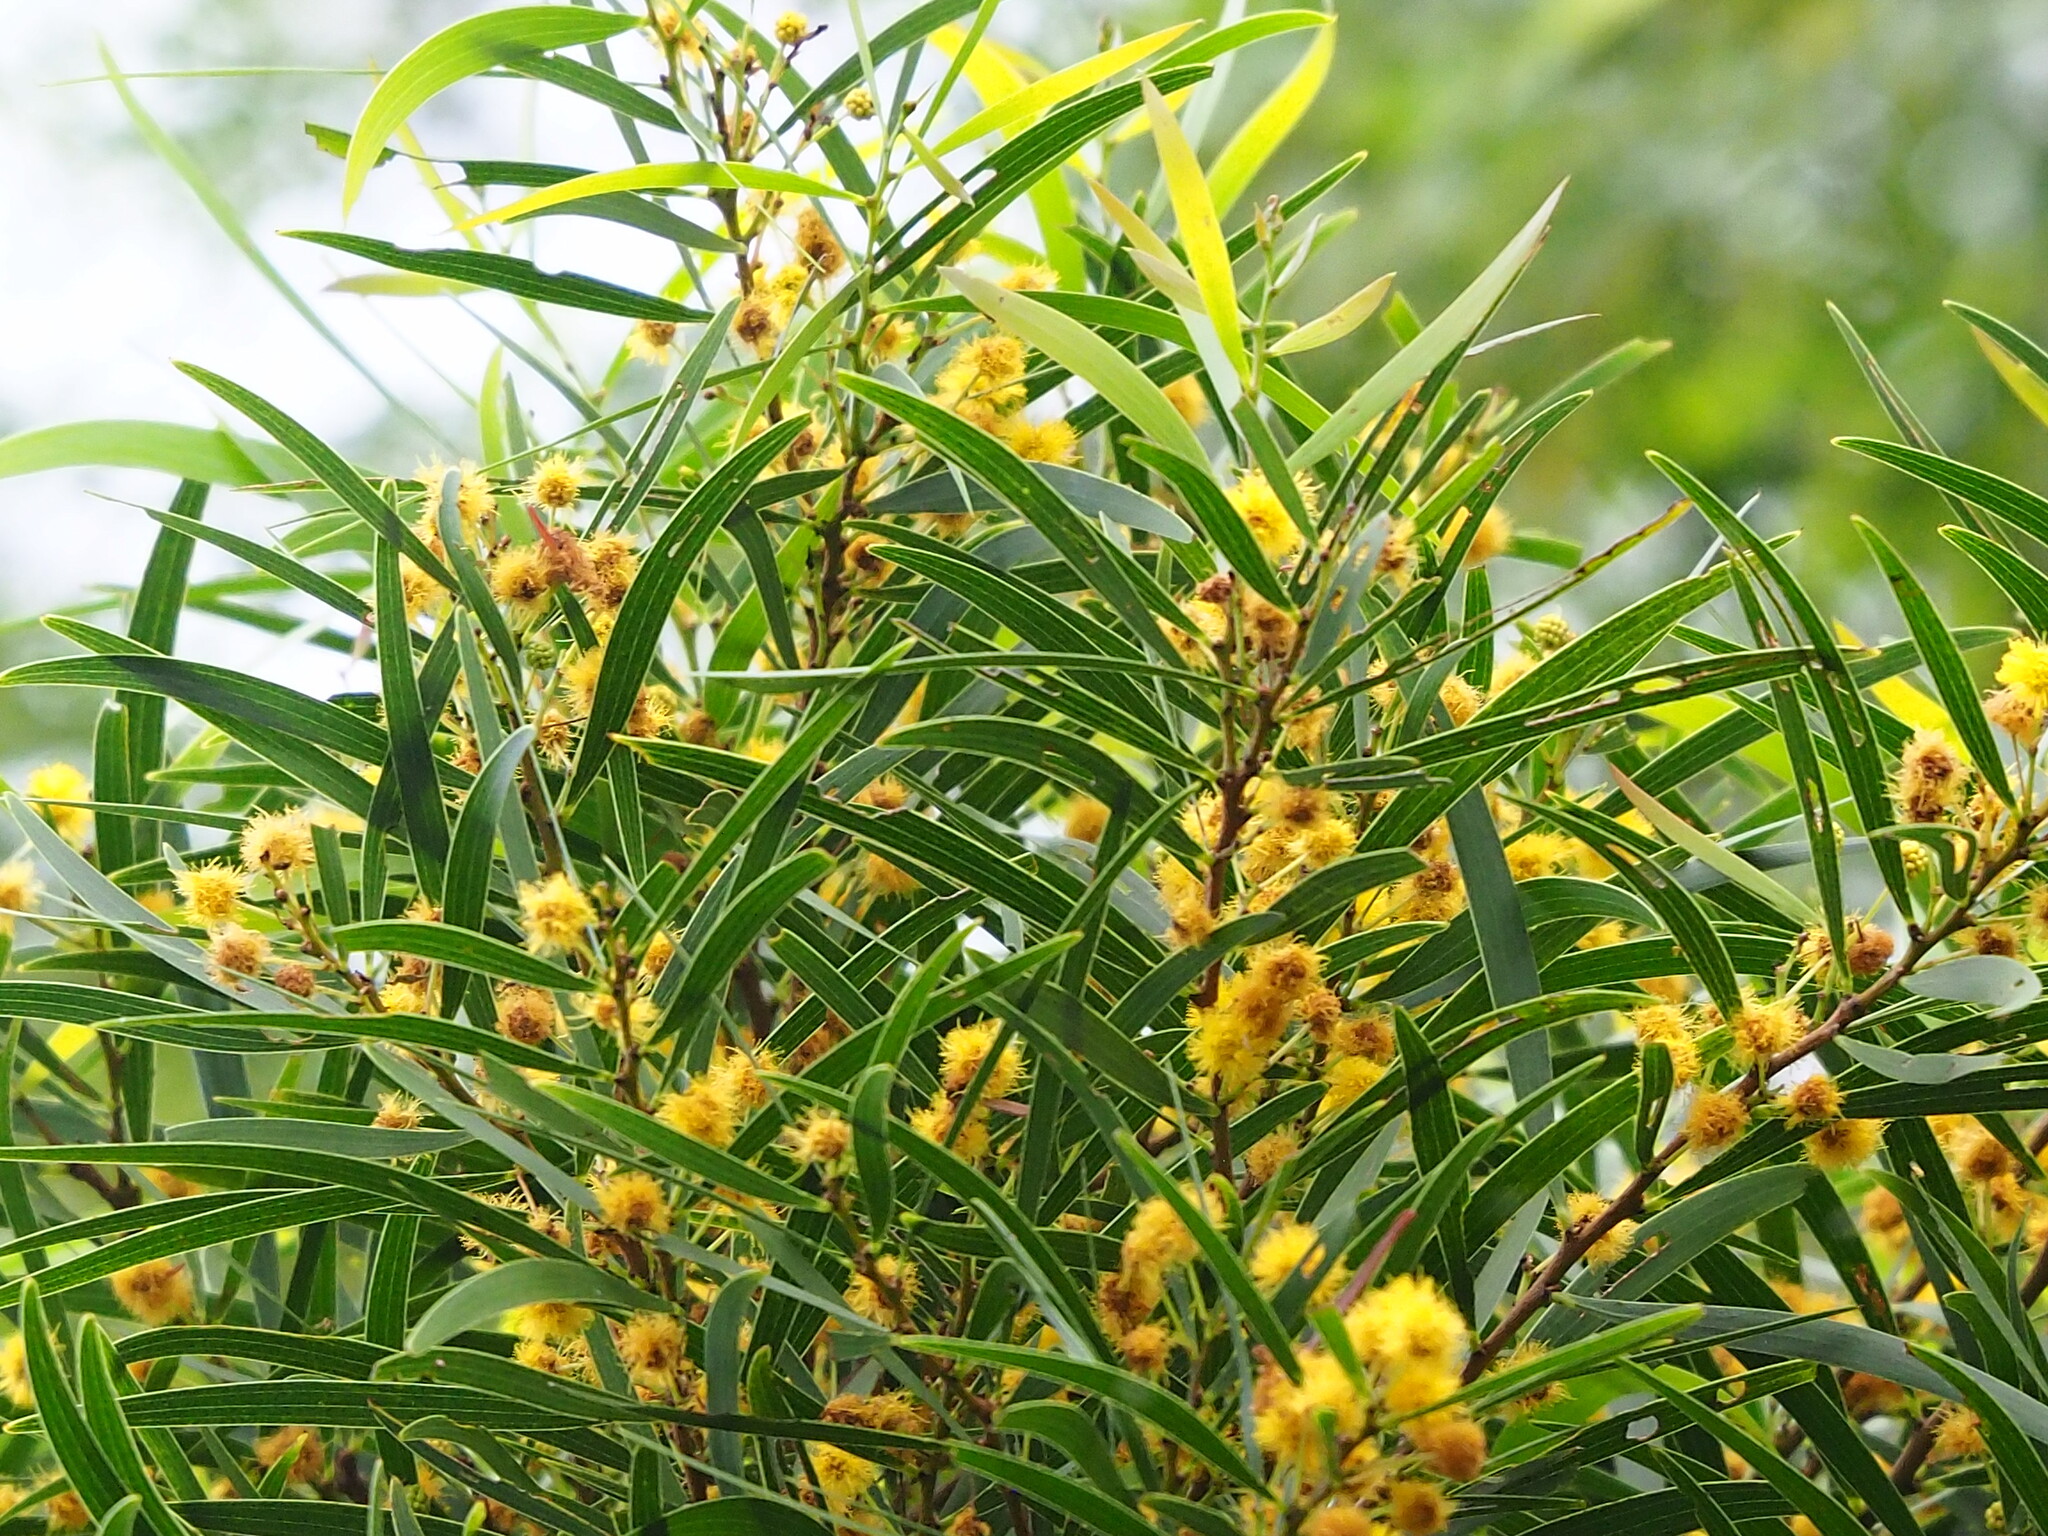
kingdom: Plantae
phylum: Tracheophyta
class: Magnoliopsida
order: Fabales
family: Fabaceae
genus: Acacia
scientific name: Acacia confusa
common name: Formosan koa
